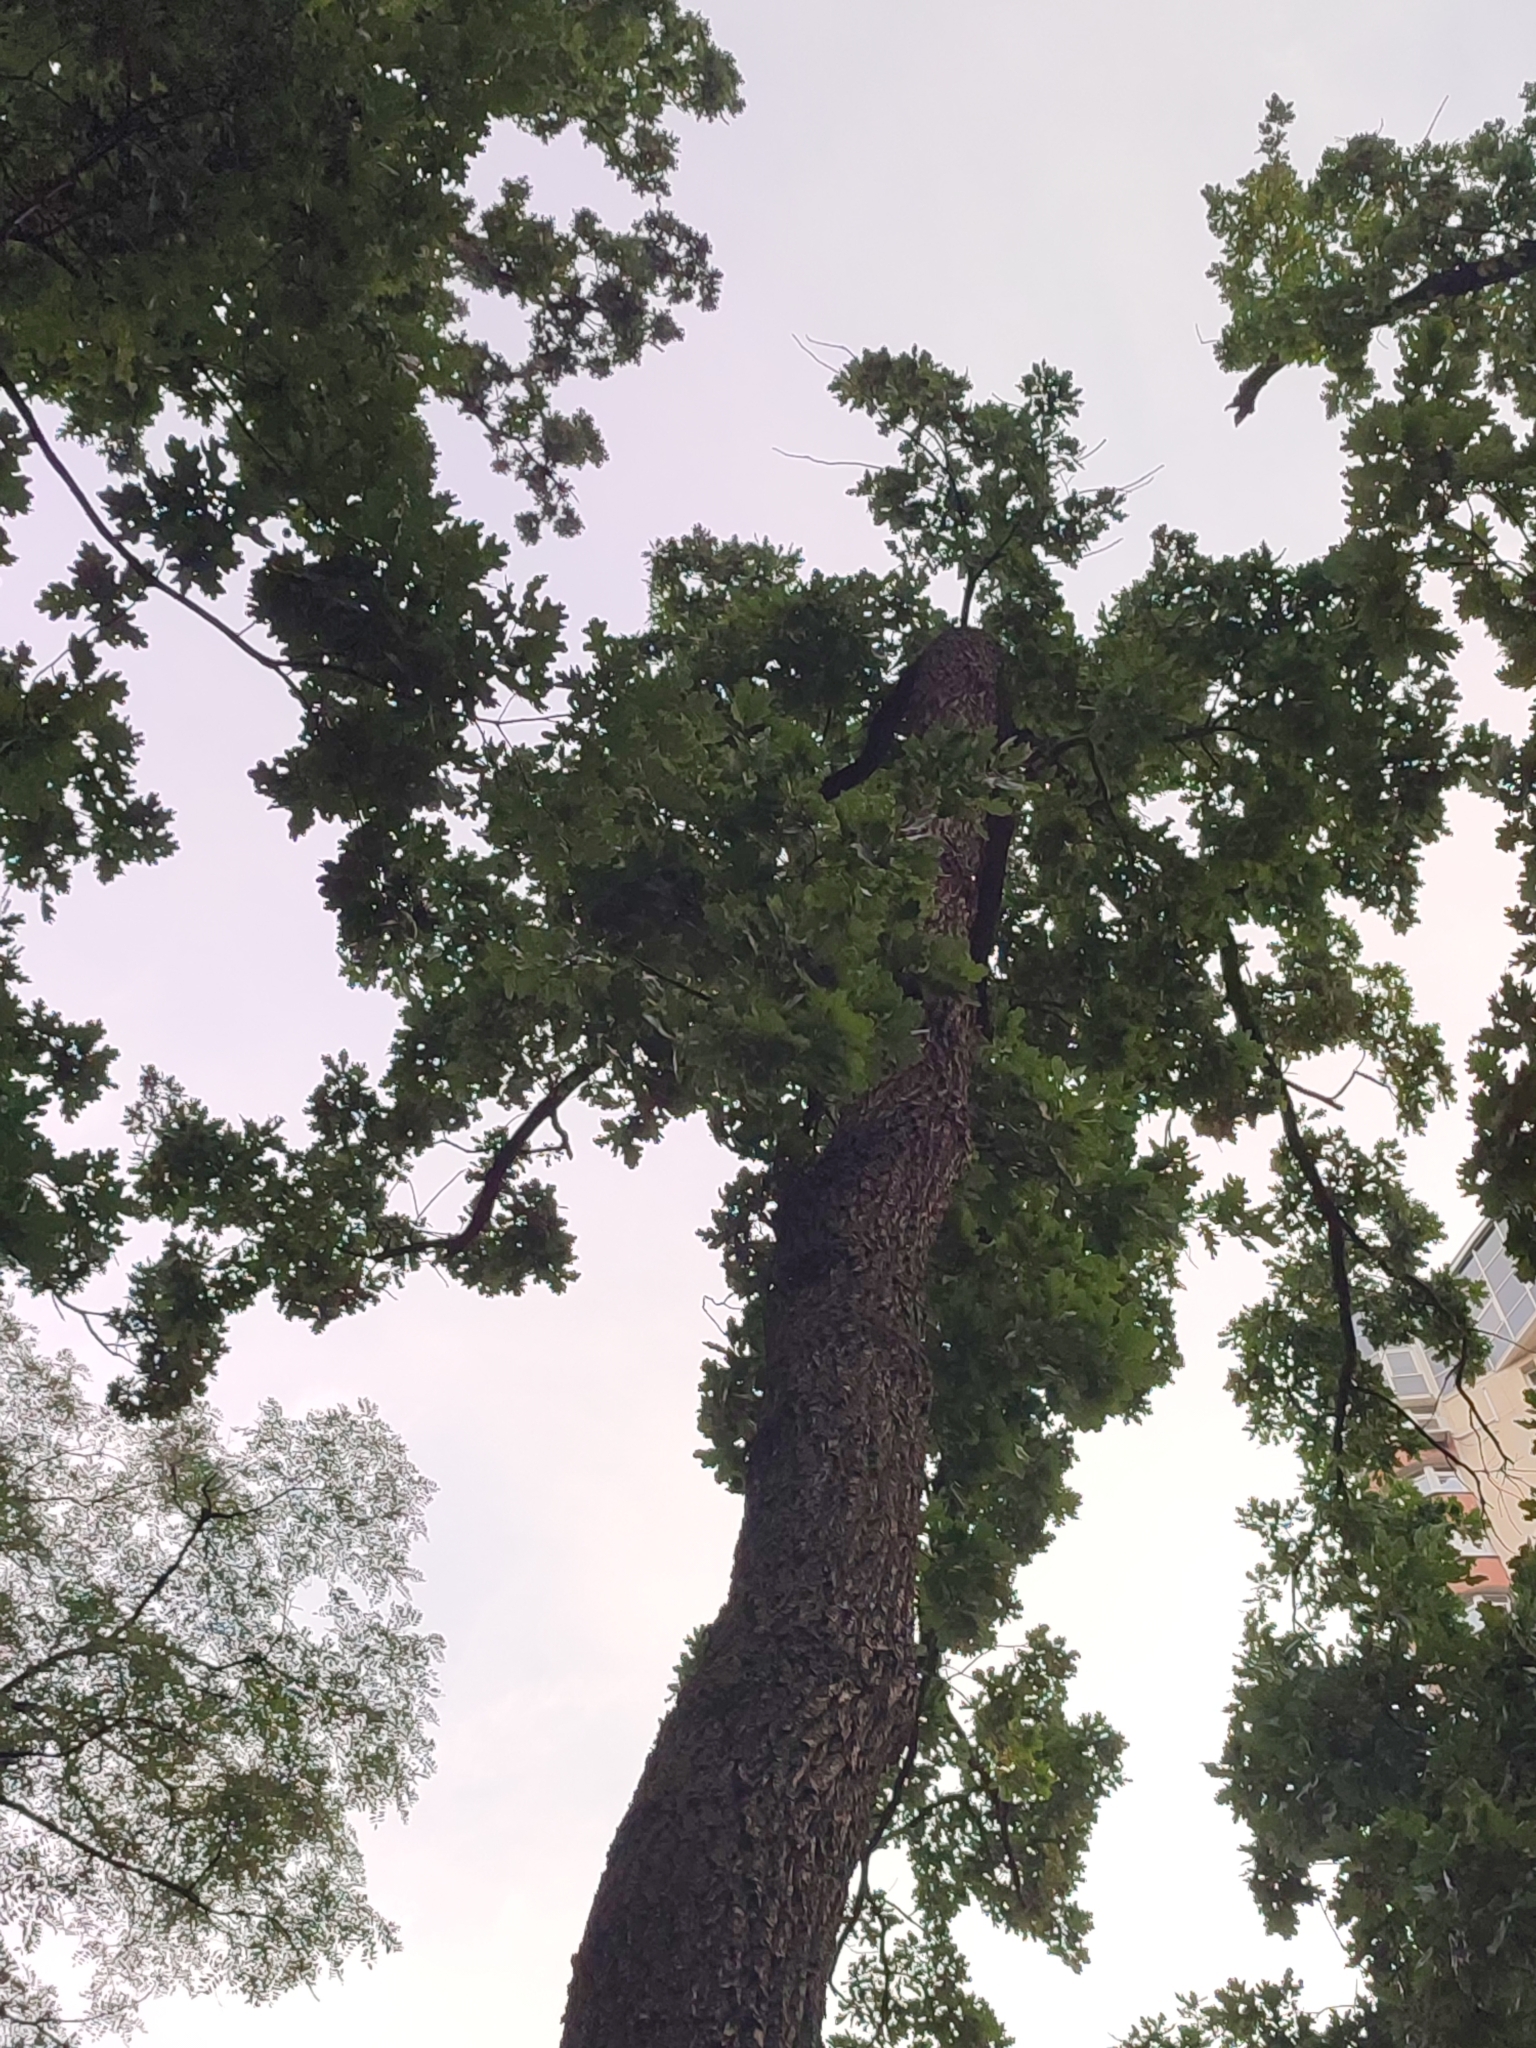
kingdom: Plantae
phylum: Tracheophyta
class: Magnoliopsida
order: Fagales
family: Fagaceae
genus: Quercus
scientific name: Quercus robur
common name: Pedunculate oak
